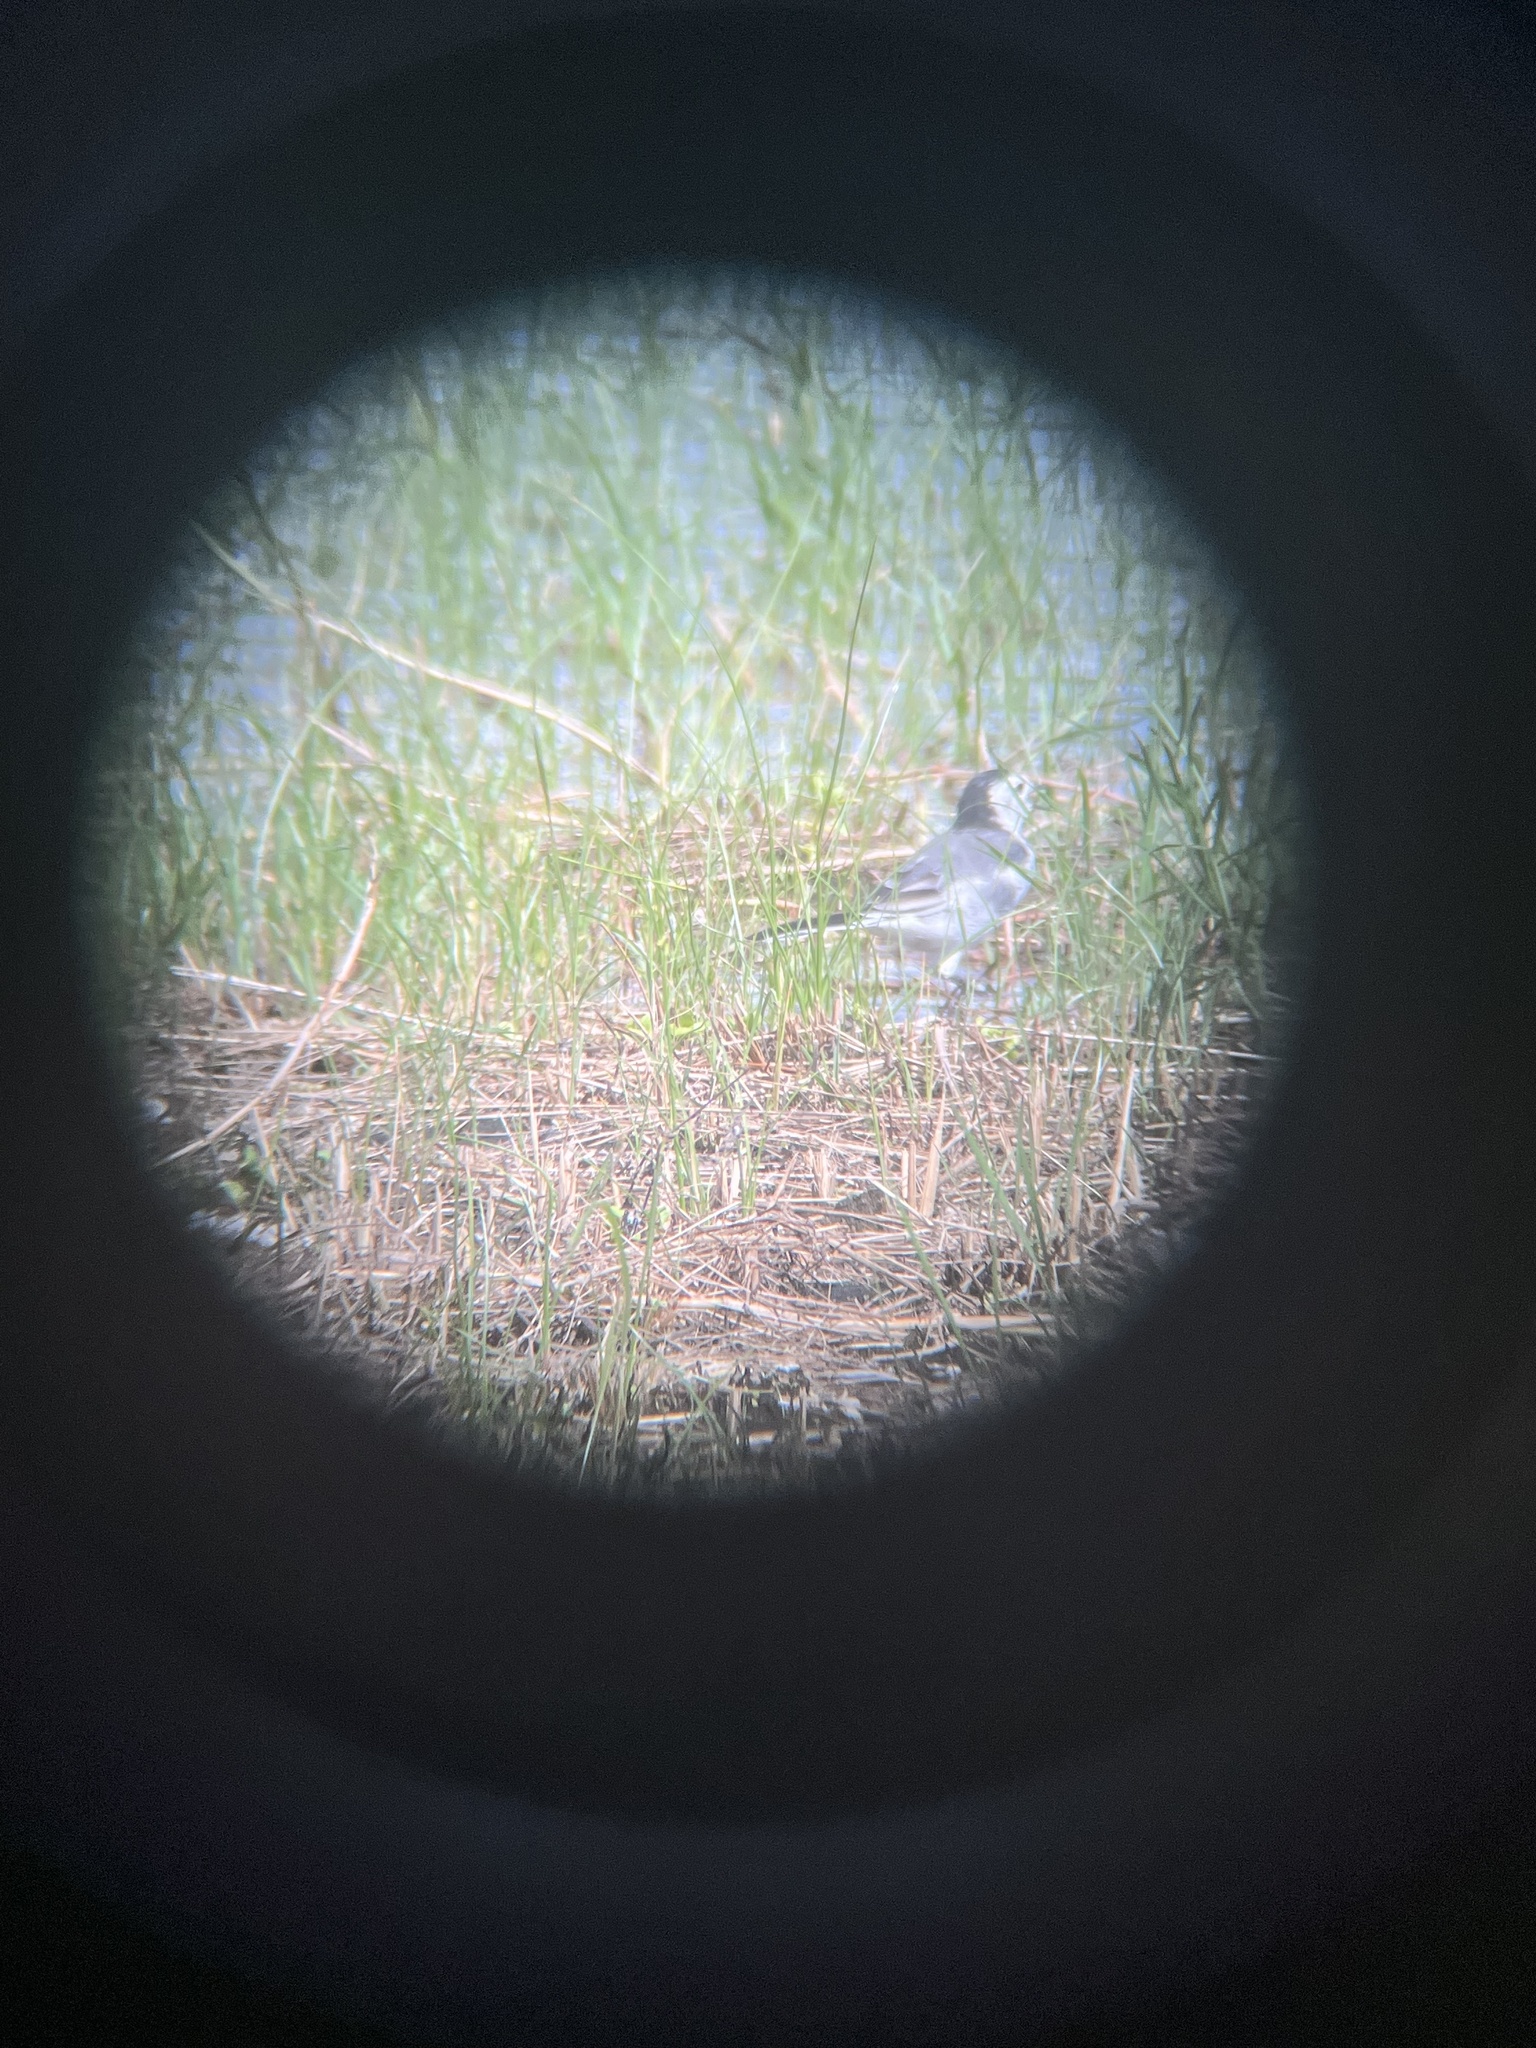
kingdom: Animalia
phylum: Chordata
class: Aves
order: Passeriformes
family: Motacillidae
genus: Motacilla
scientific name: Motacilla alba
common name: White wagtail
